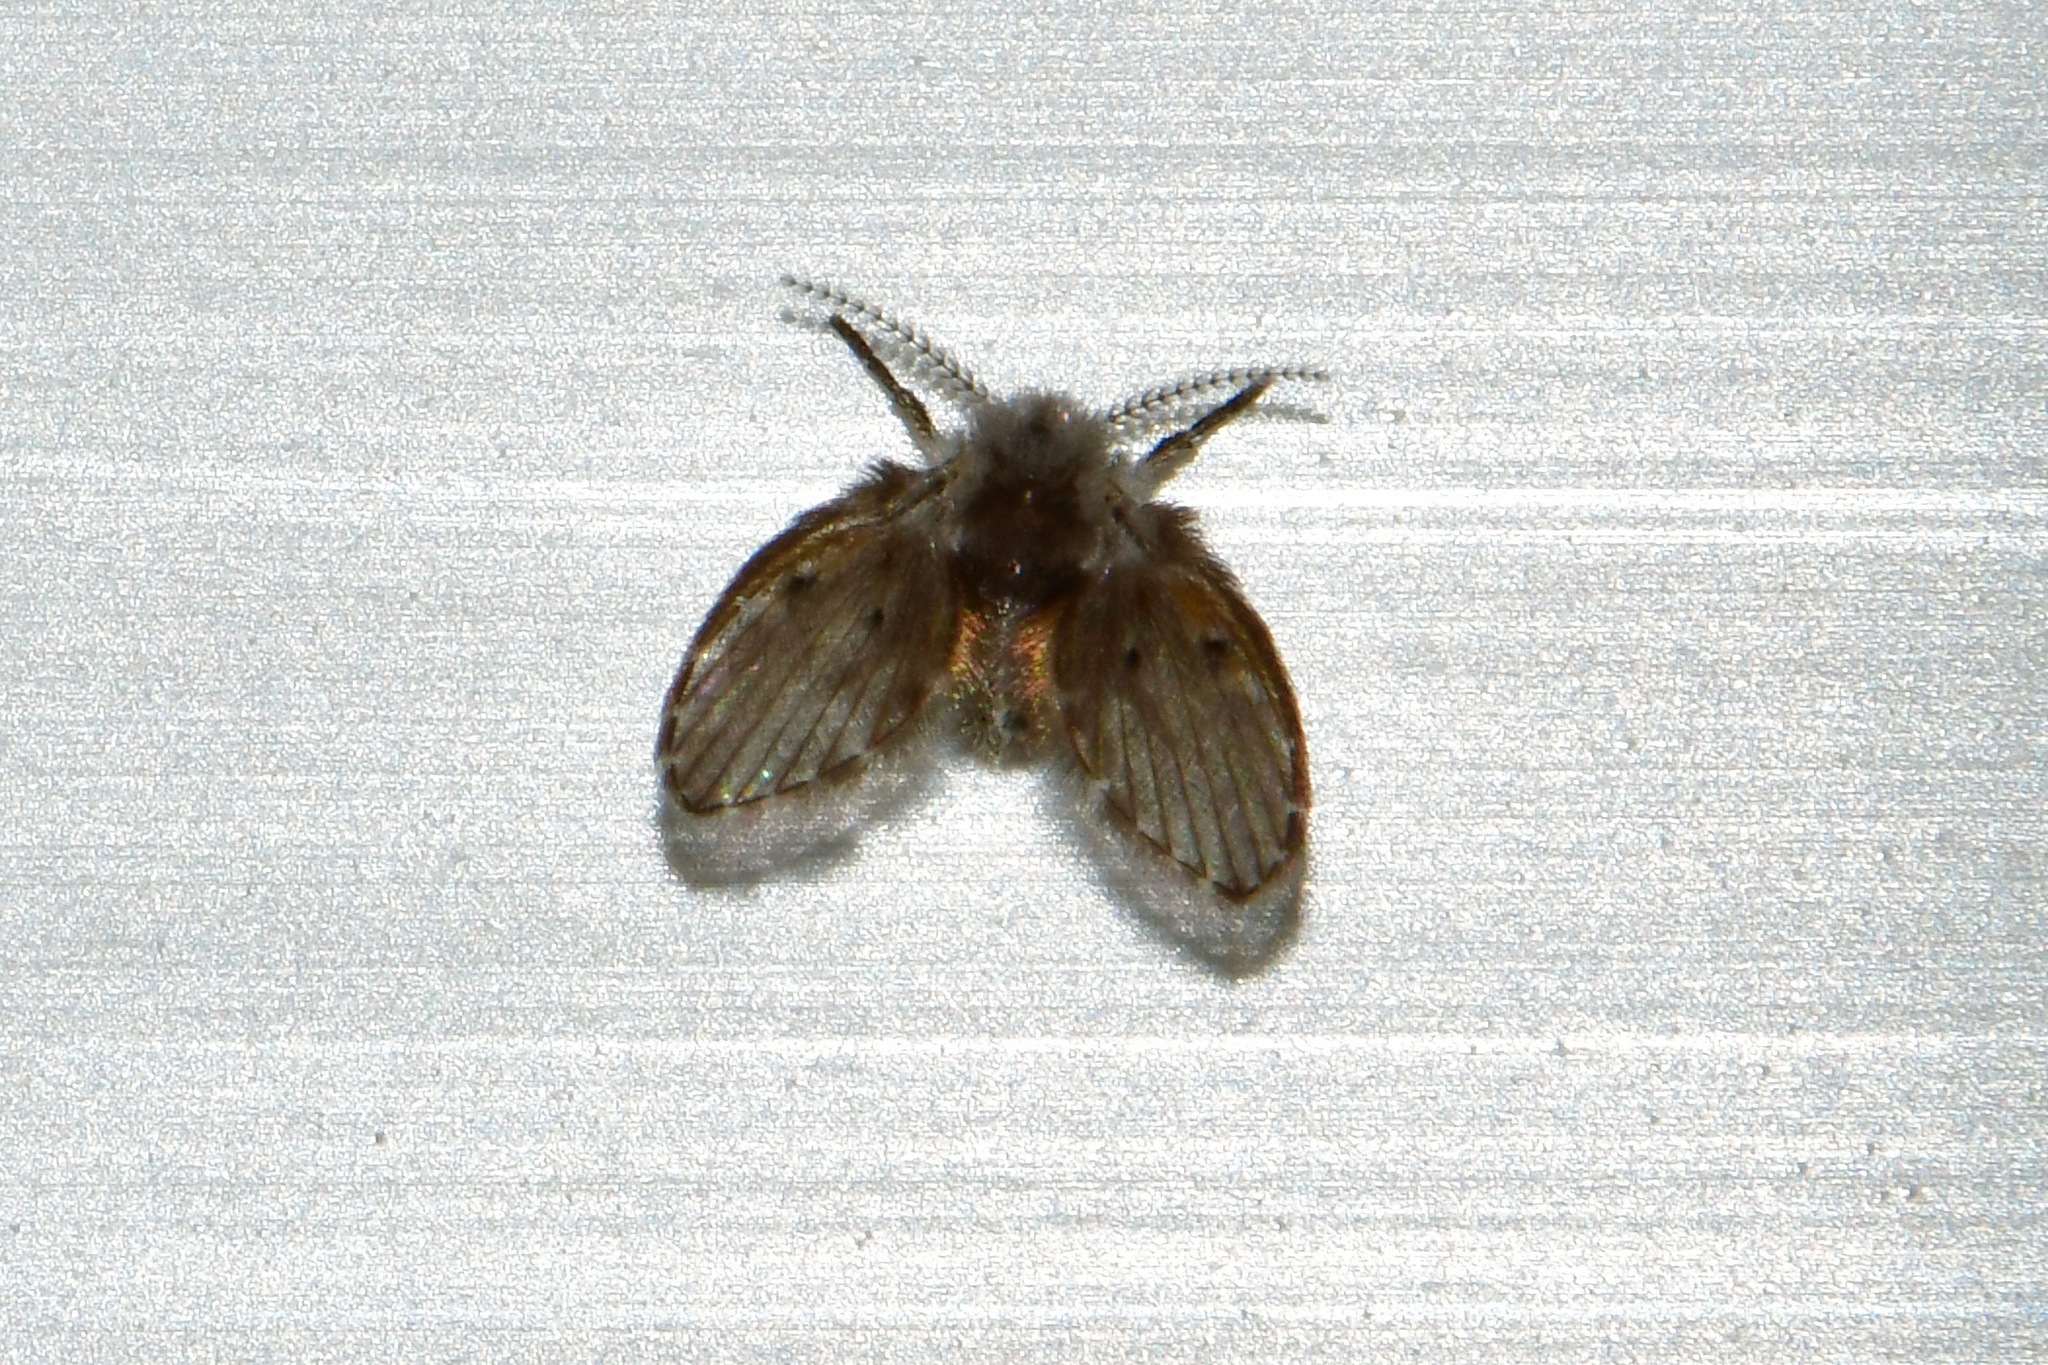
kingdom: Animalia
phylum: Arthropoda
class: Insecta
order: Diptera
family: Psychodidae
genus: Clogmia
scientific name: Clogmia albipunctatus
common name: White-spotted moth fly
